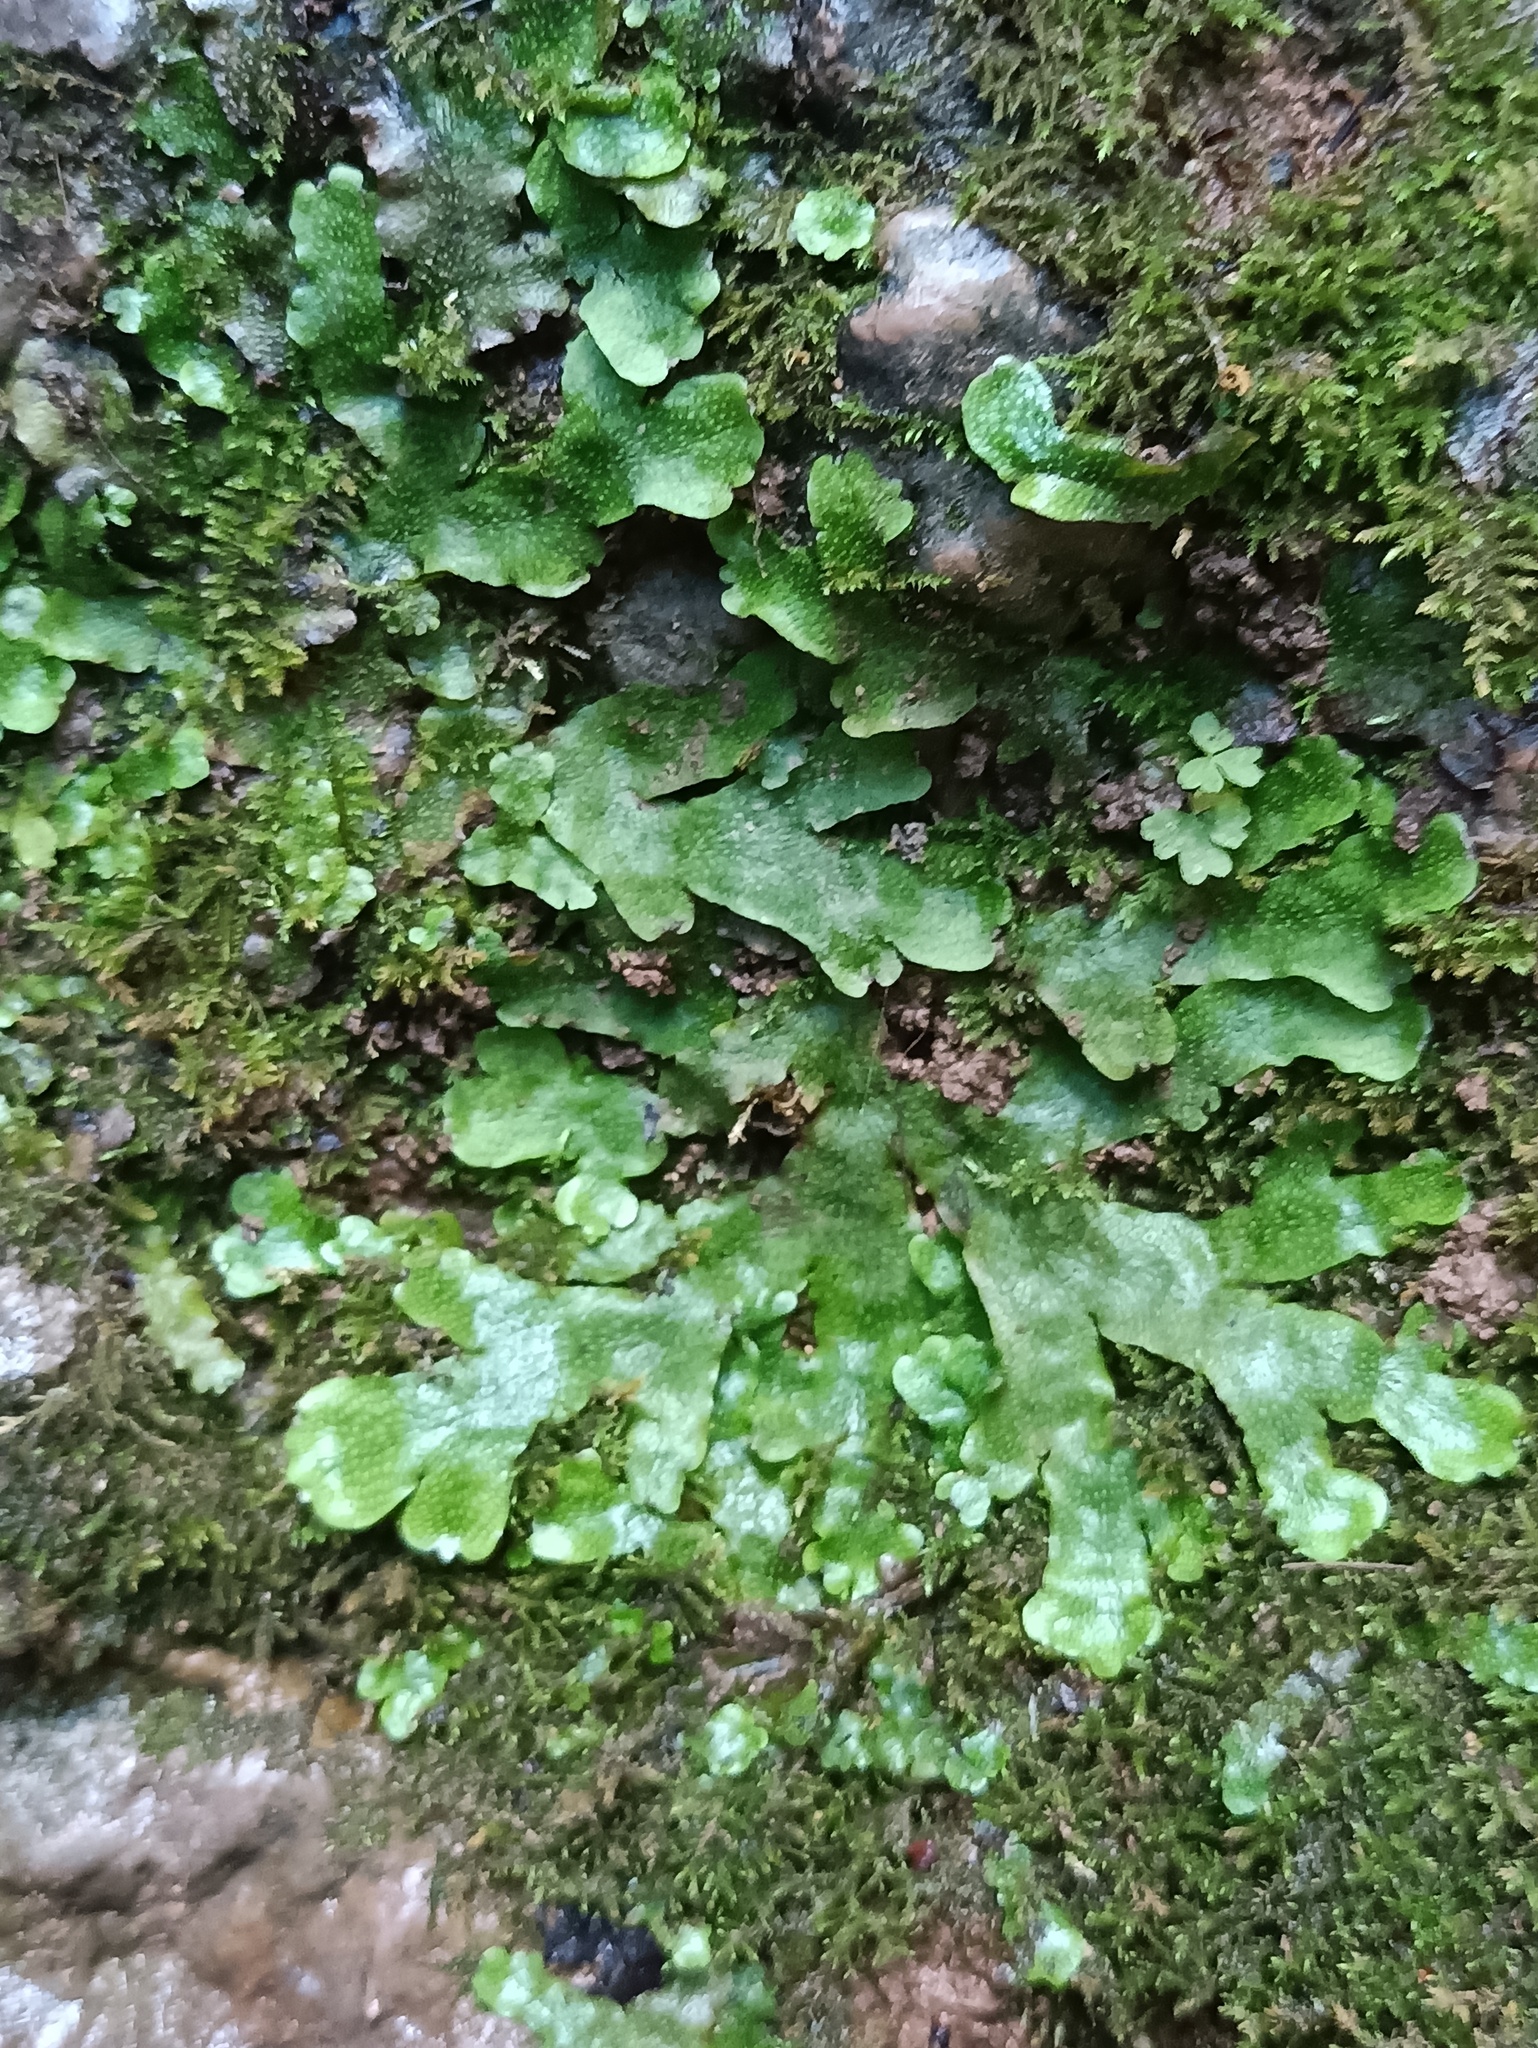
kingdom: Plantae
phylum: Marchantiophyta
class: Marchantiopsida
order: Marchantiales
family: Conocephalaceae
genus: Conocephalum
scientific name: Conocephalum salebrosum
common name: Cat-tongue liverwort
